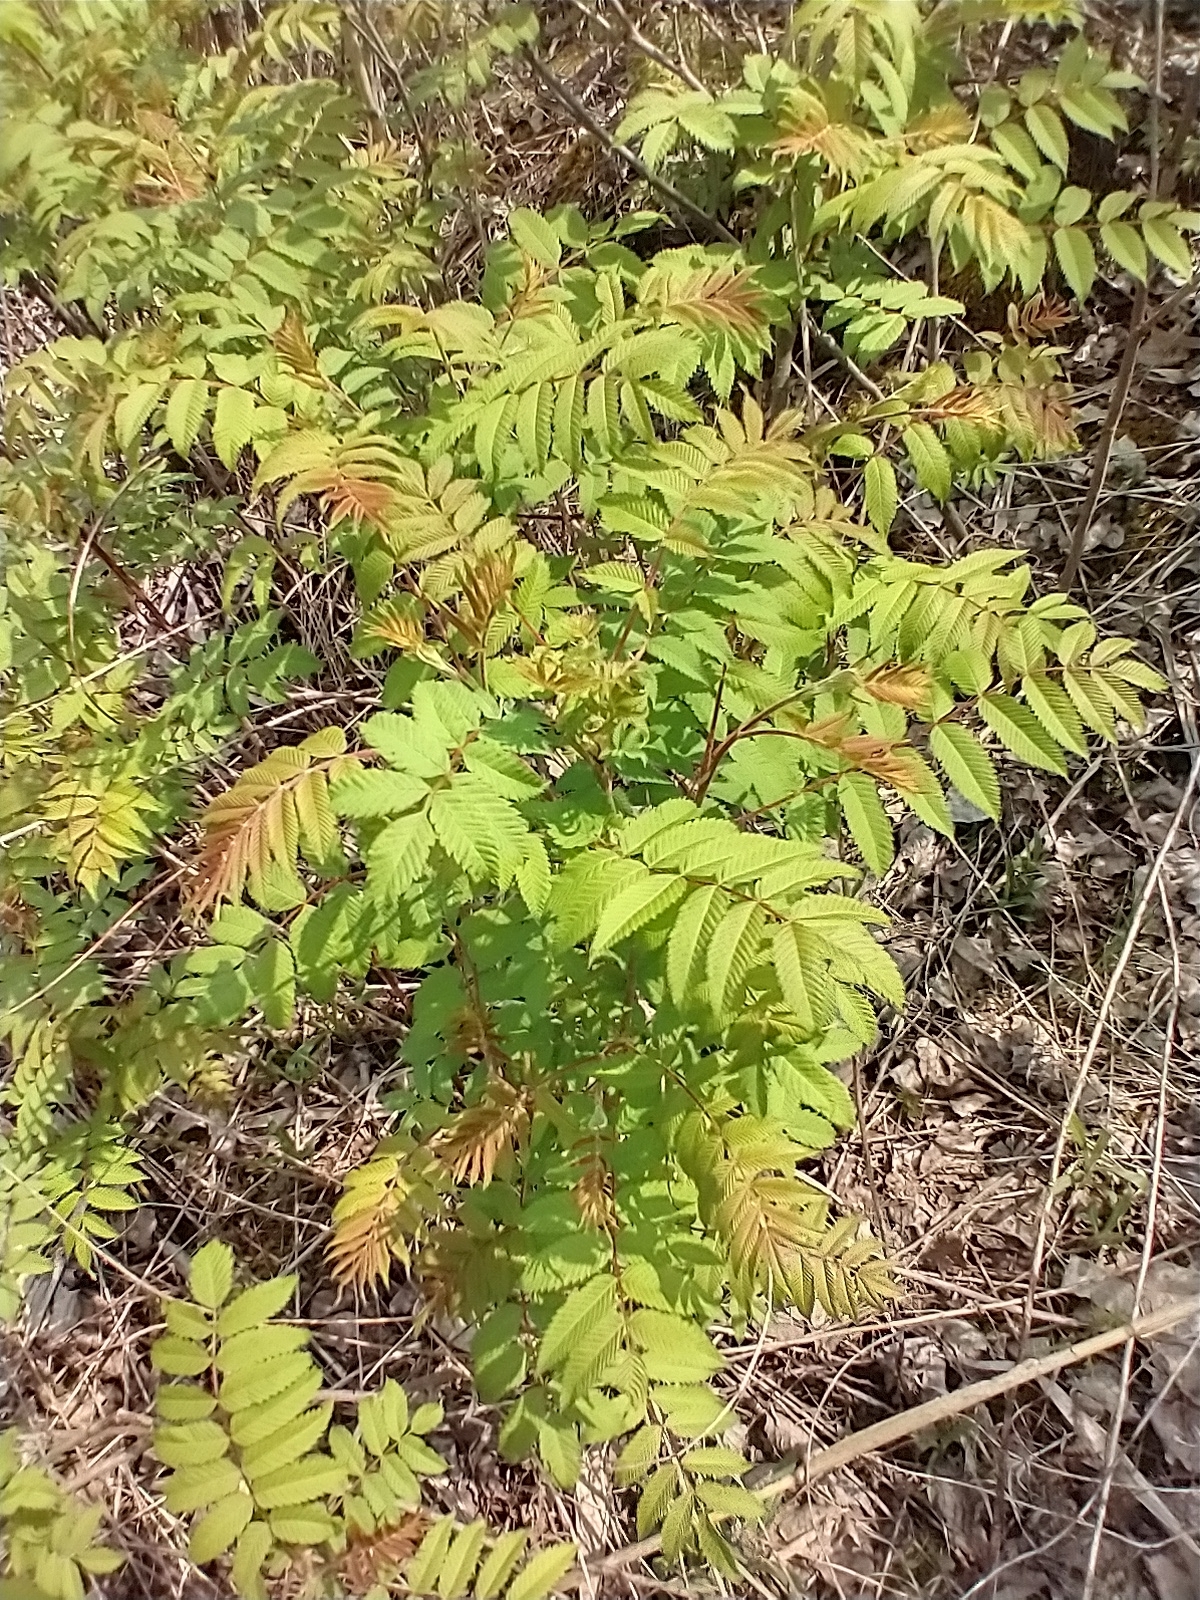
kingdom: Plantae
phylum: Tracheophyta
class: Magnoliopsida
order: Rosales
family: Rosaceae
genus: Sorbaria
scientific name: Sorbaria sorbifolia
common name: False spiraea
